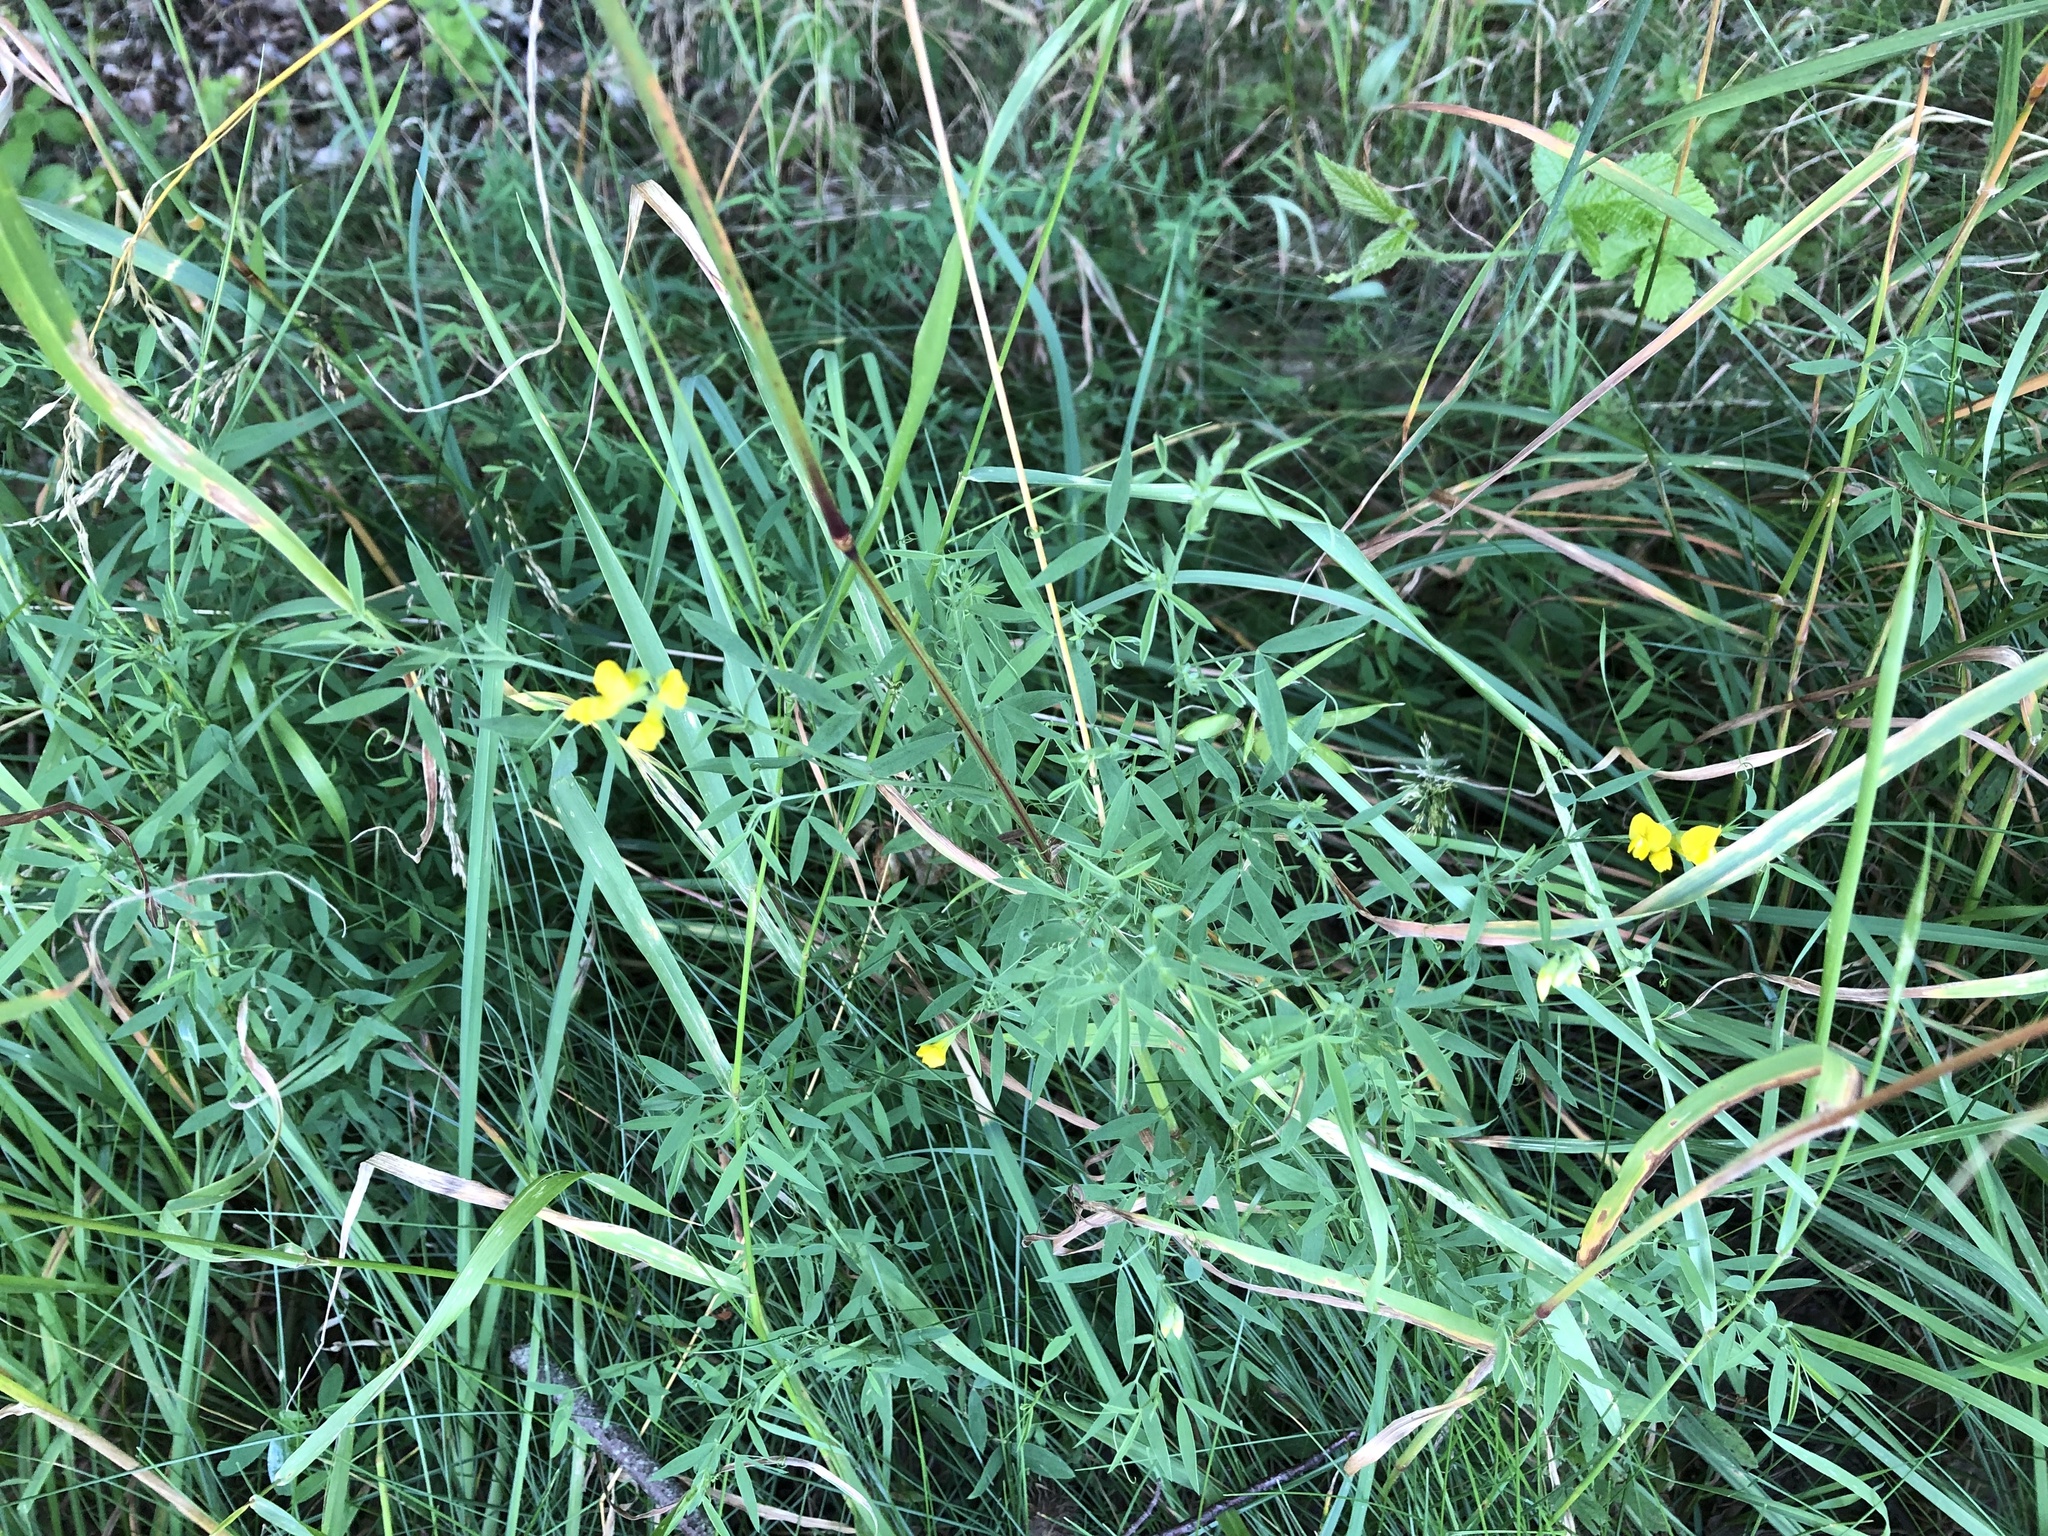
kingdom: Plantae
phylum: Tracheophyta
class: Magnoliopsida
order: Fabales
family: Fabaceae
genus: Lathyrus
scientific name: Lathyrus pratensis
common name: Meadow vetchling
